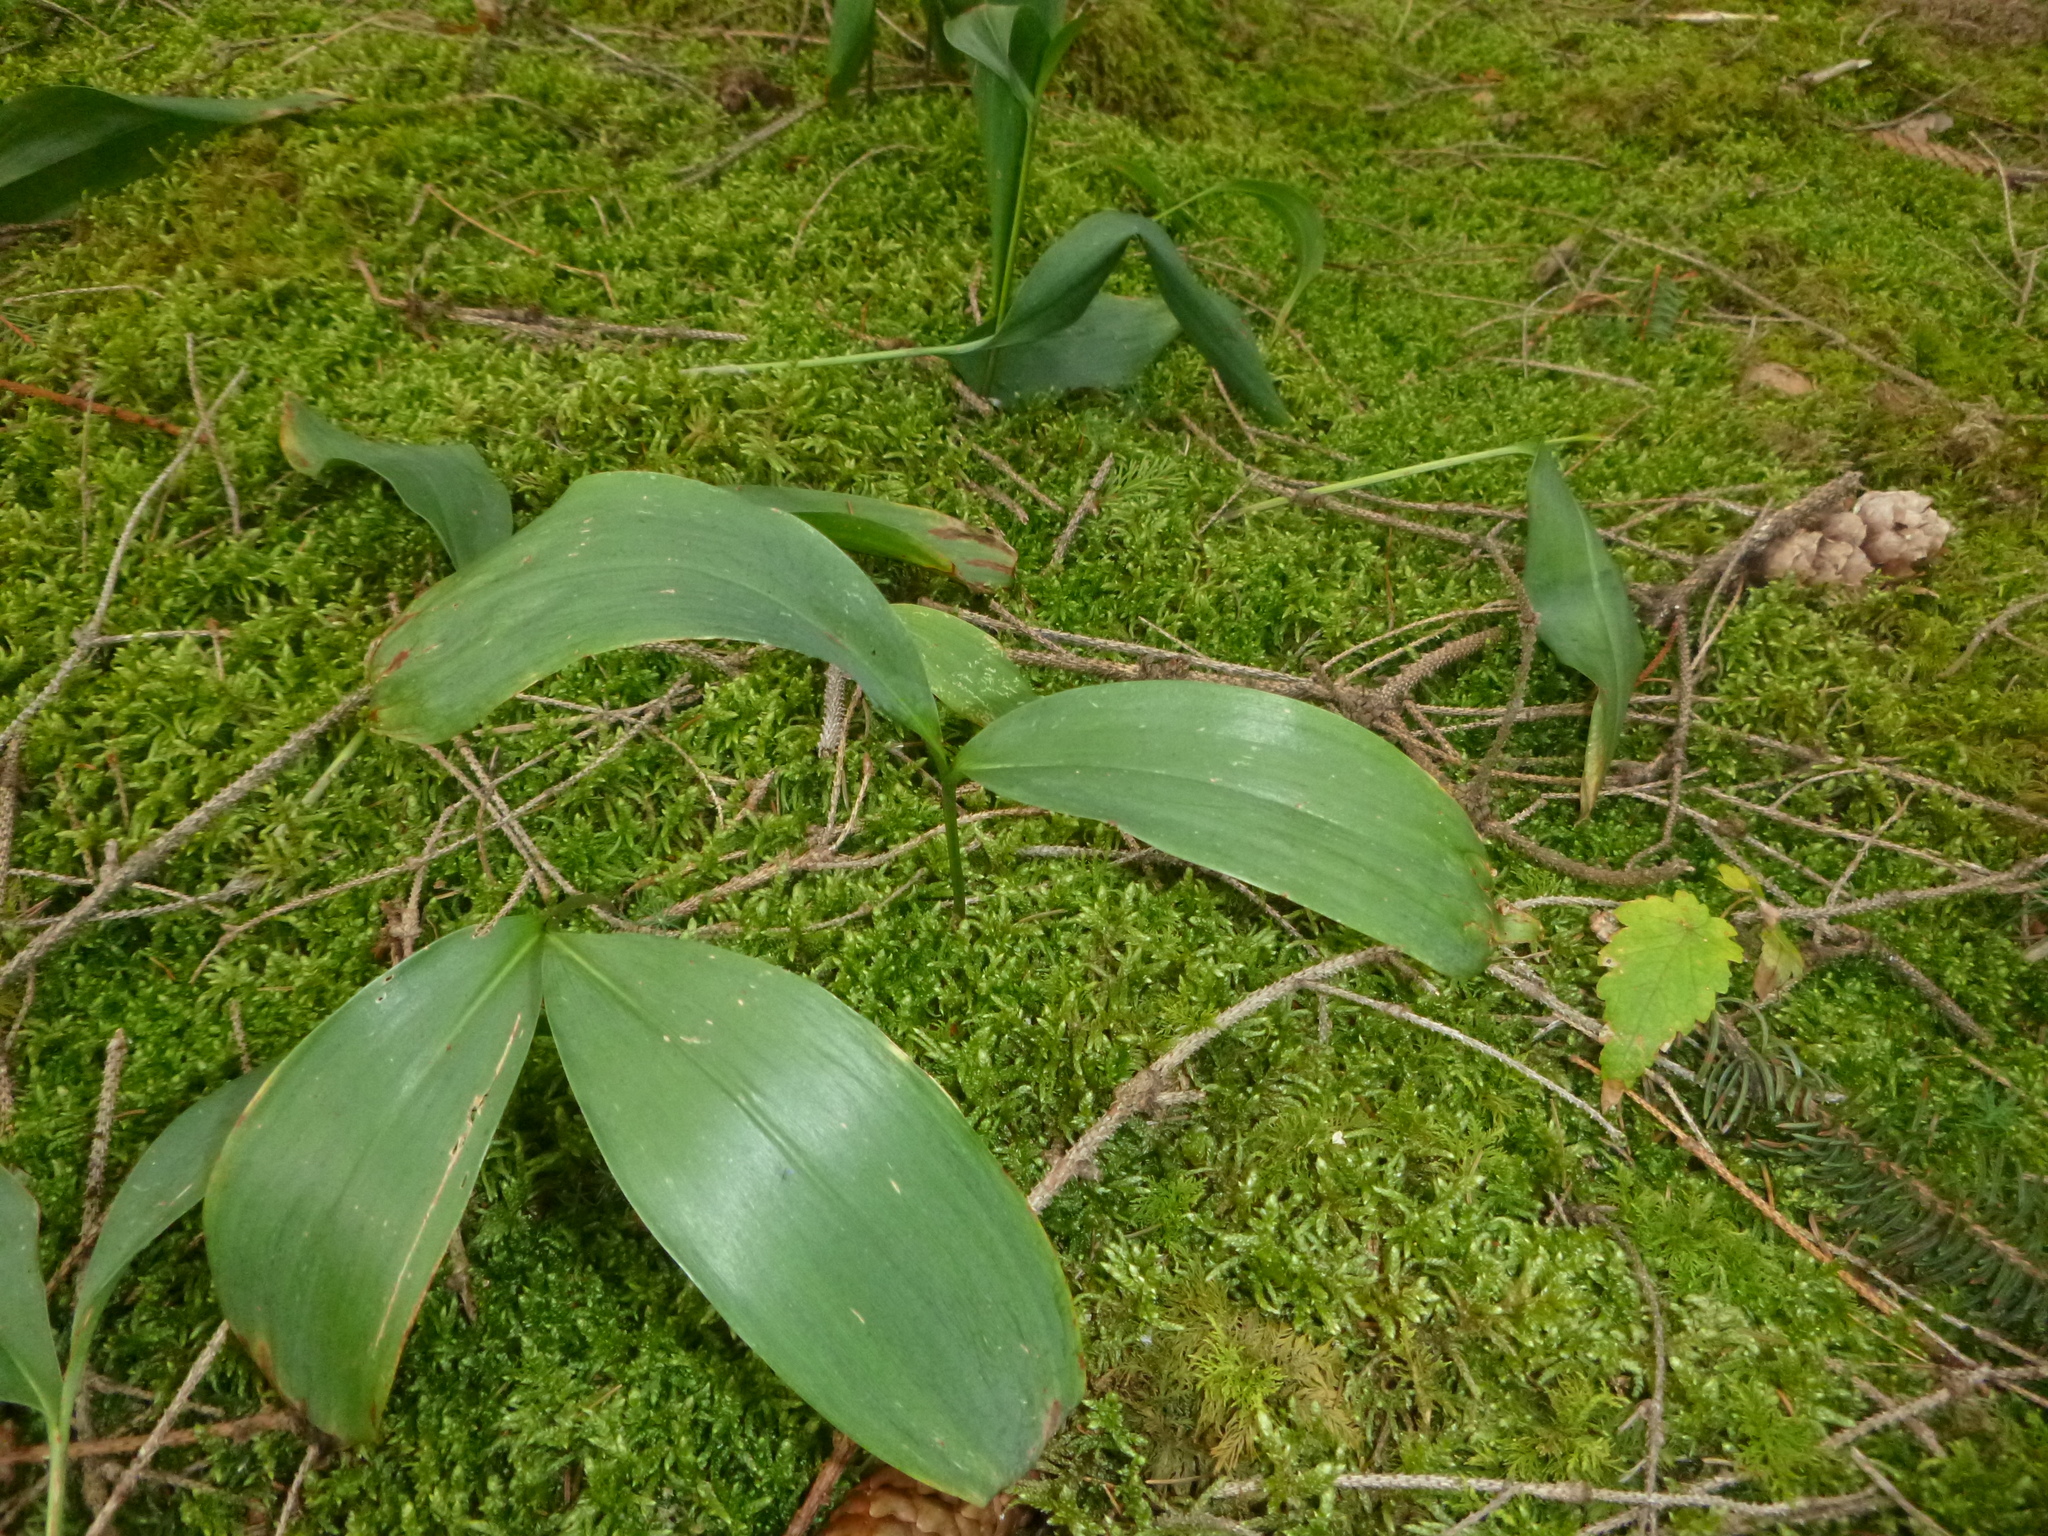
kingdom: Plantae
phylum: Tracheophyta
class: Liliopsida
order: Asparagales
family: Asparagaceae
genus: Convallaria
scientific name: Convallaria majalis
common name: Lily-of-the-valley
